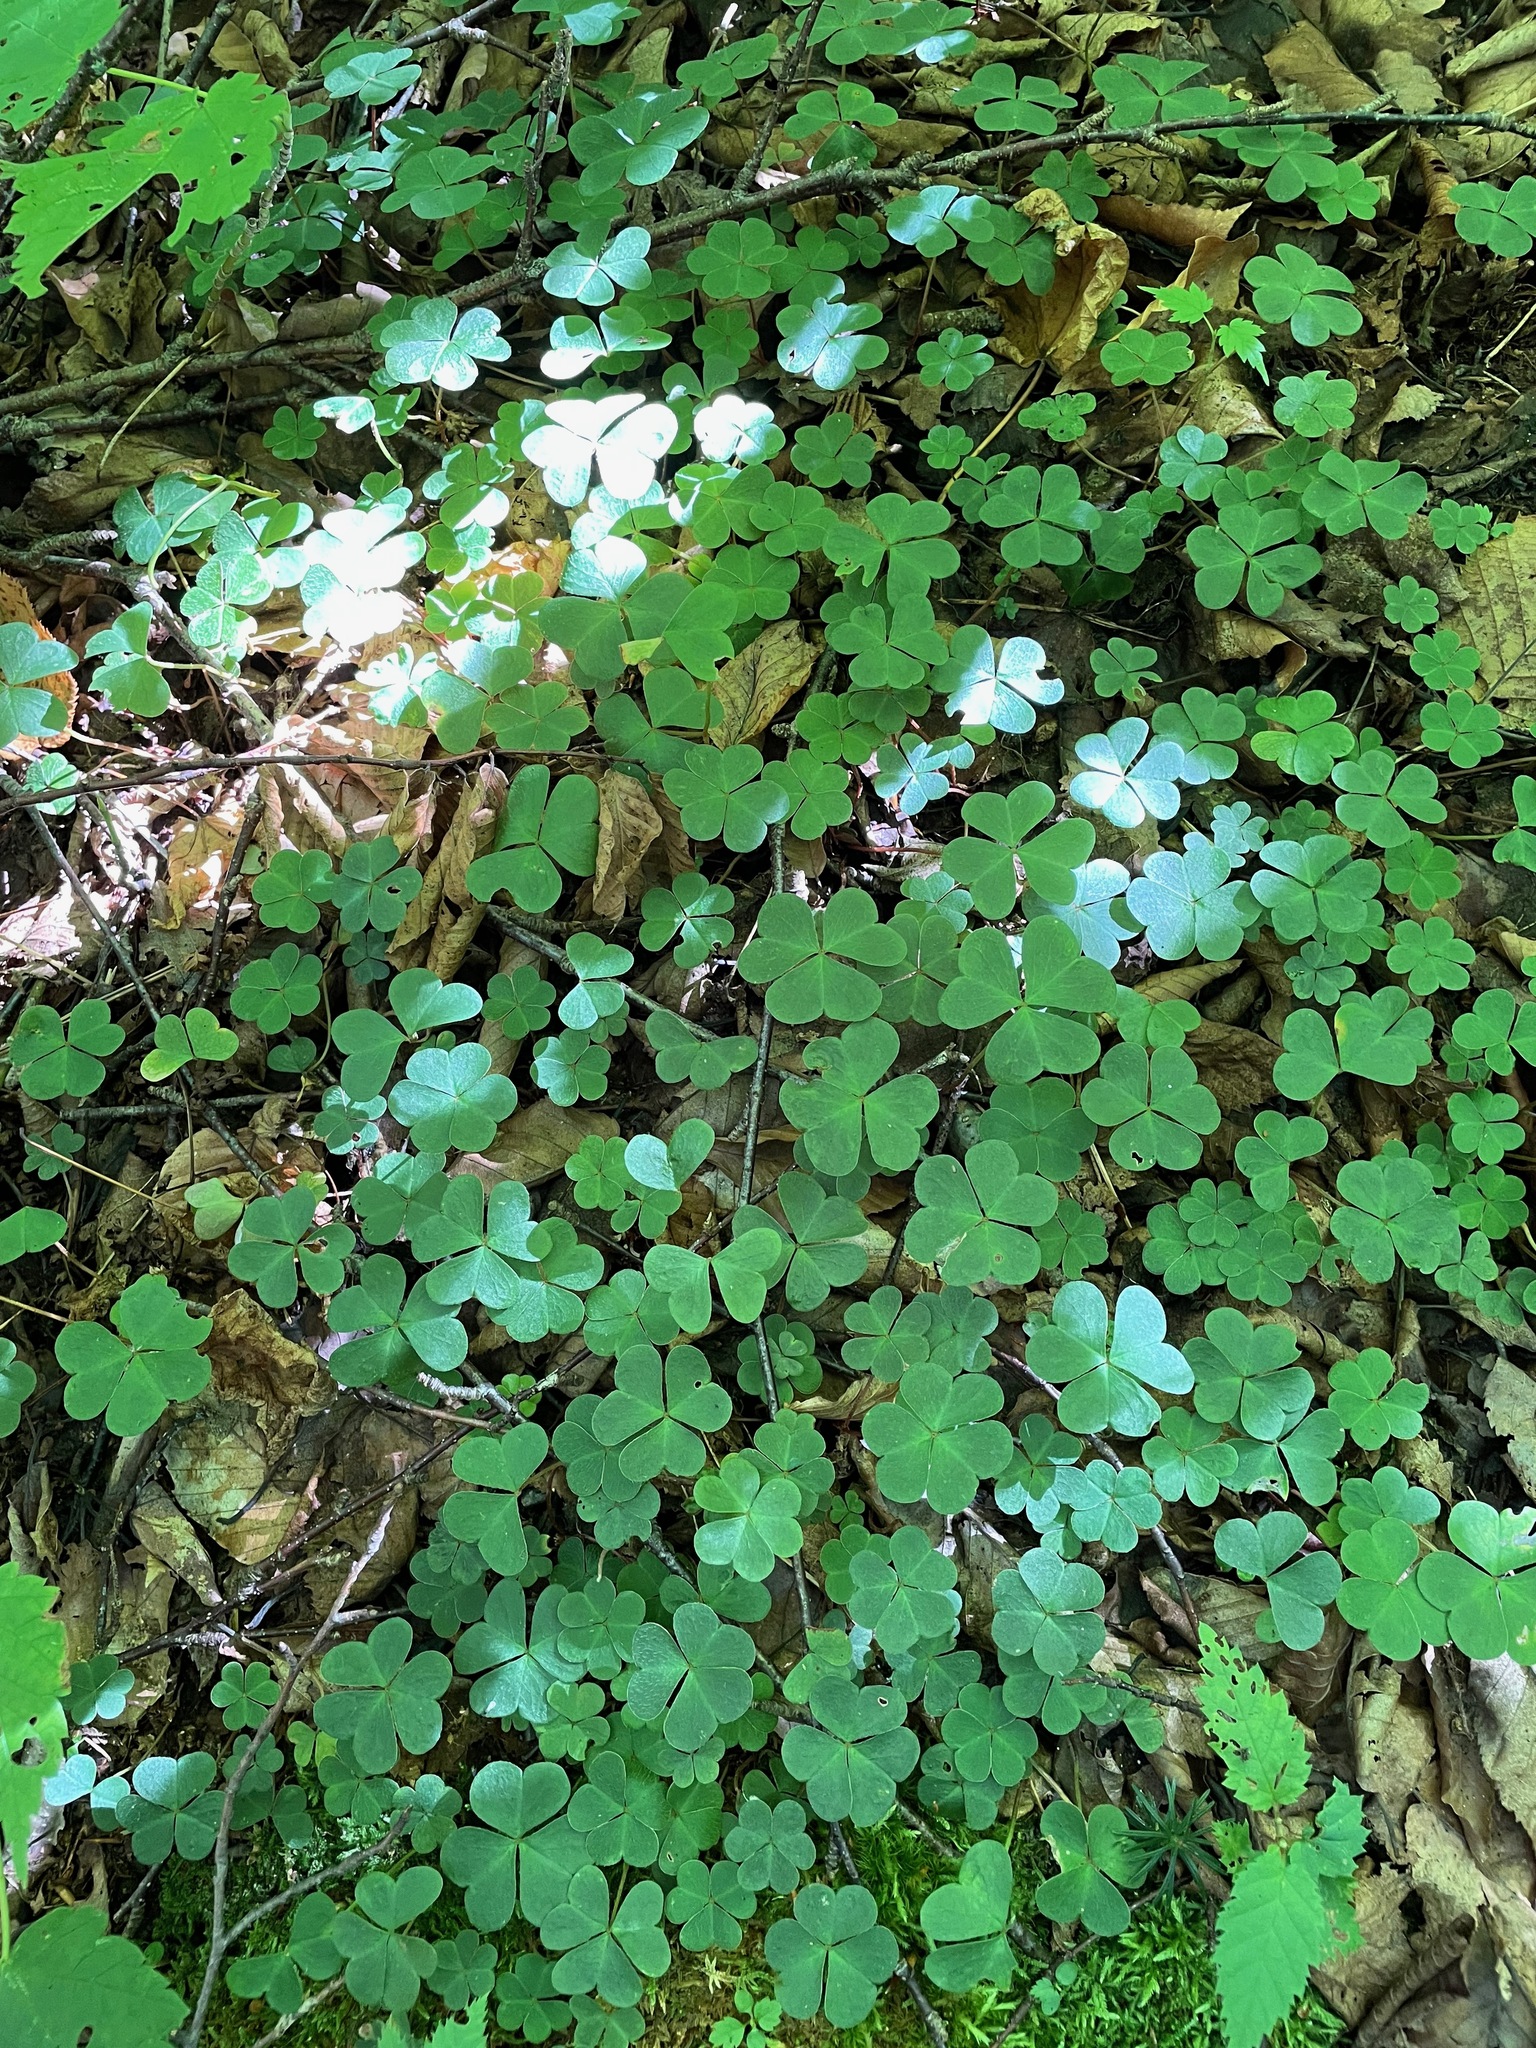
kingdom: Plantae
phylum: Tracheophyta
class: Magnoliopsida
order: Oxalidales
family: Oxalidaceae
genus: Oxalis
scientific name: Oxalis montana
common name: American wood-sorrel
